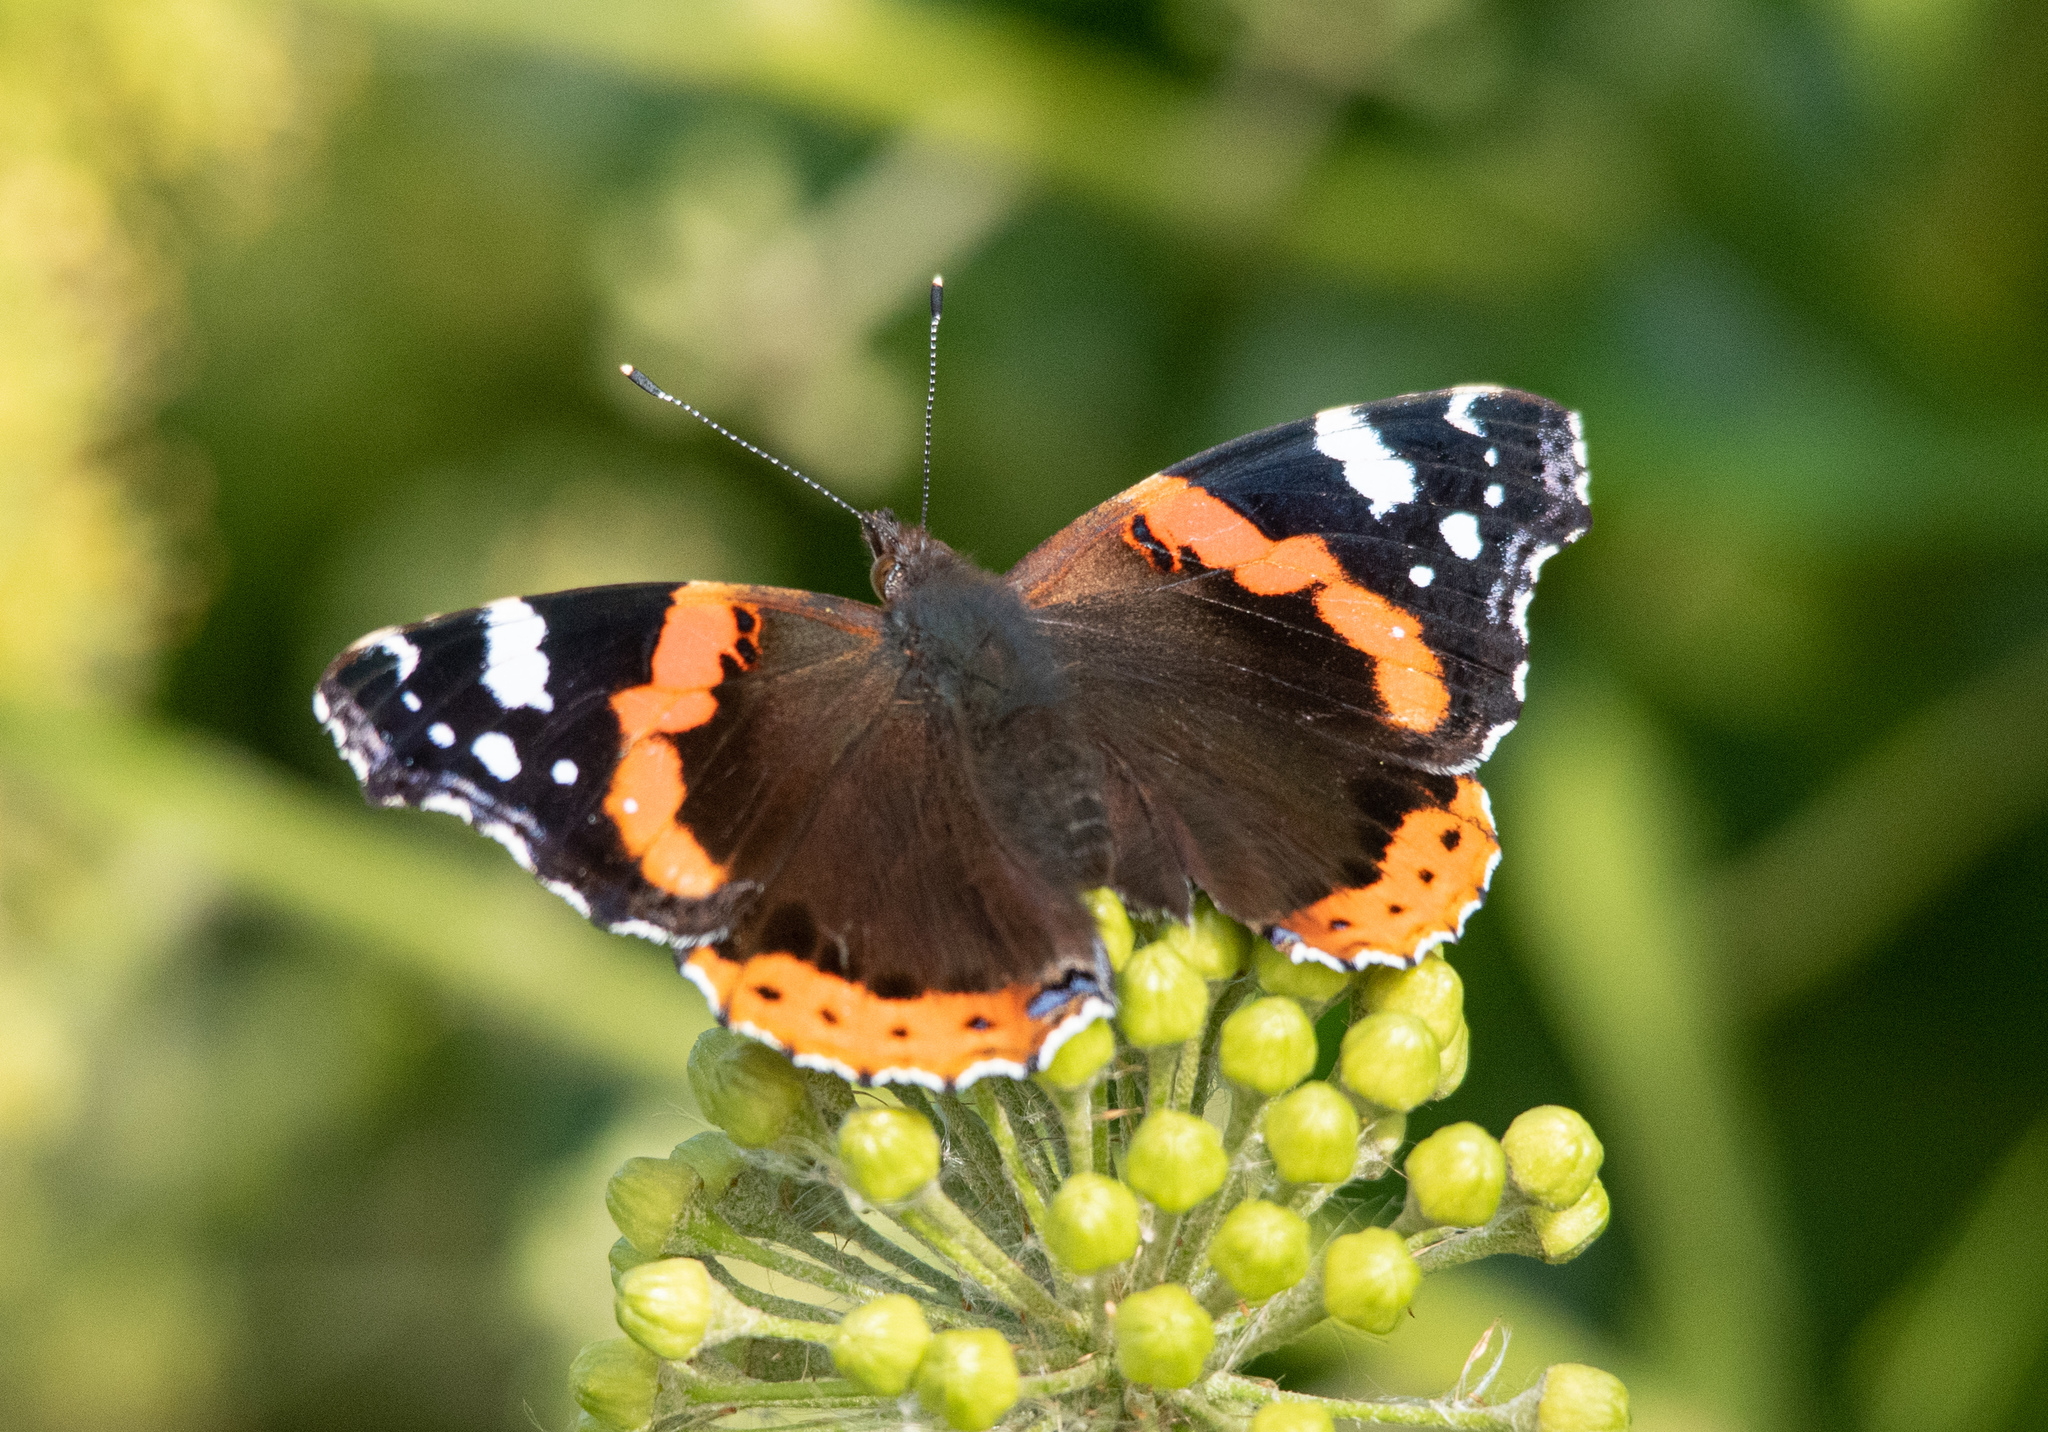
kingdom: Animalia
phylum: Arthropoda
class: Insecta
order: Lepidoptera
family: Nymphalidae
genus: Vanessa
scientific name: Vanessa atalanta
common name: Red admiral
